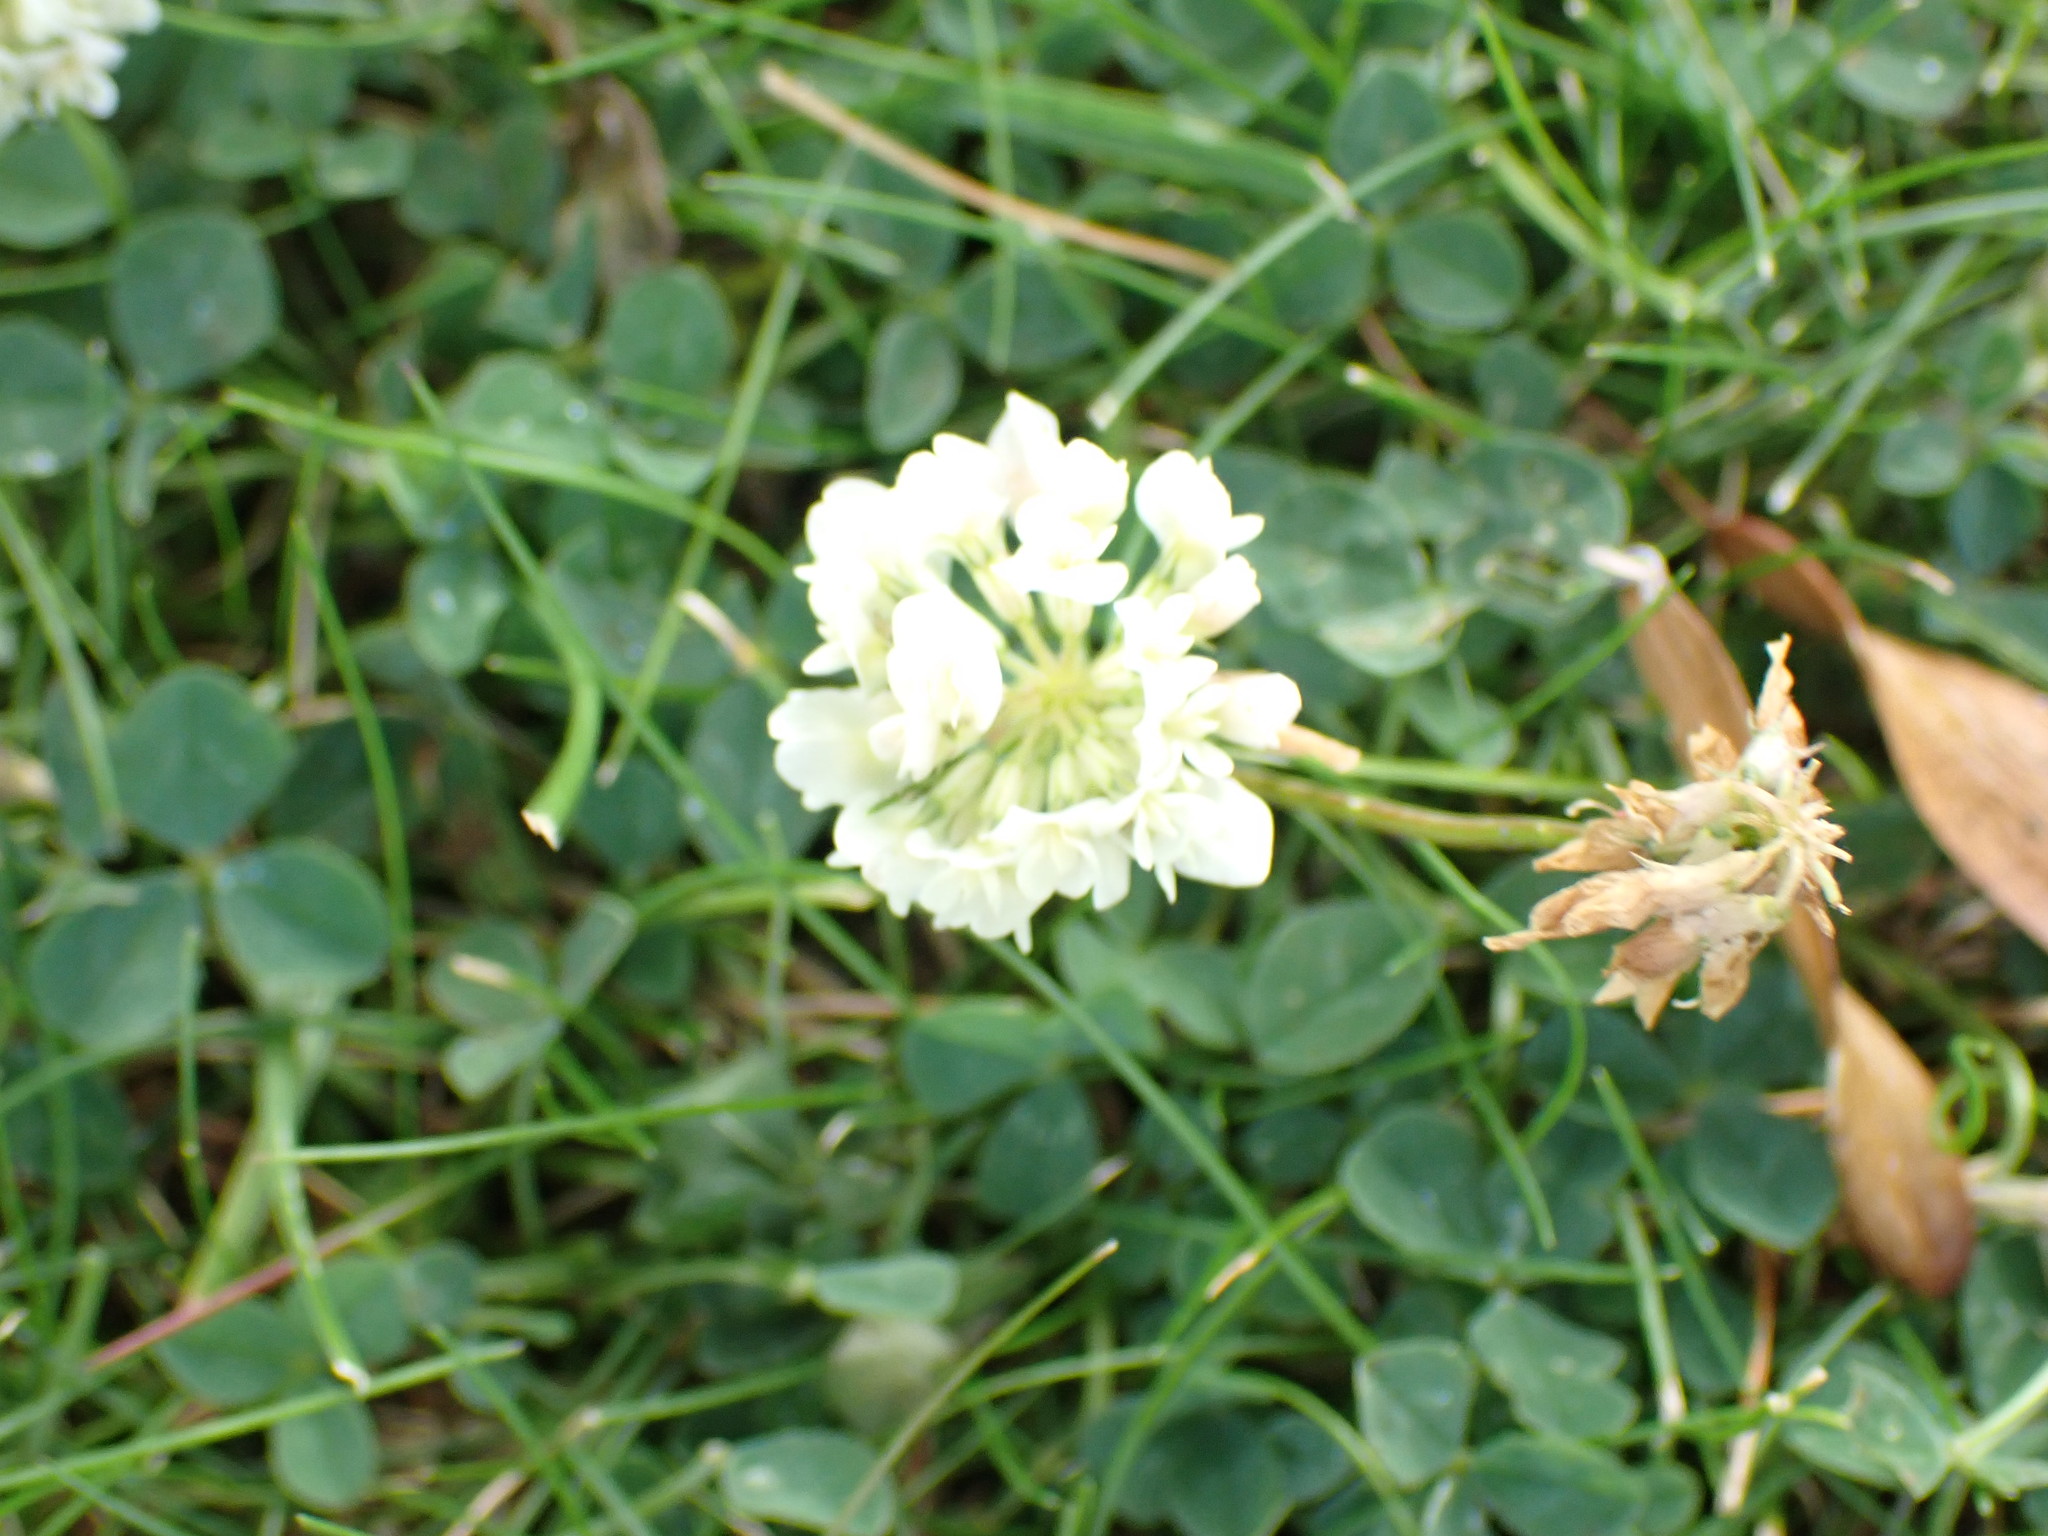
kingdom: Plantae
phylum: Tracheophyta
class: Magnoliopsida
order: Fabales
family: Fabaceae
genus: Trifolium
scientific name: Trifolium repens
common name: White clover
